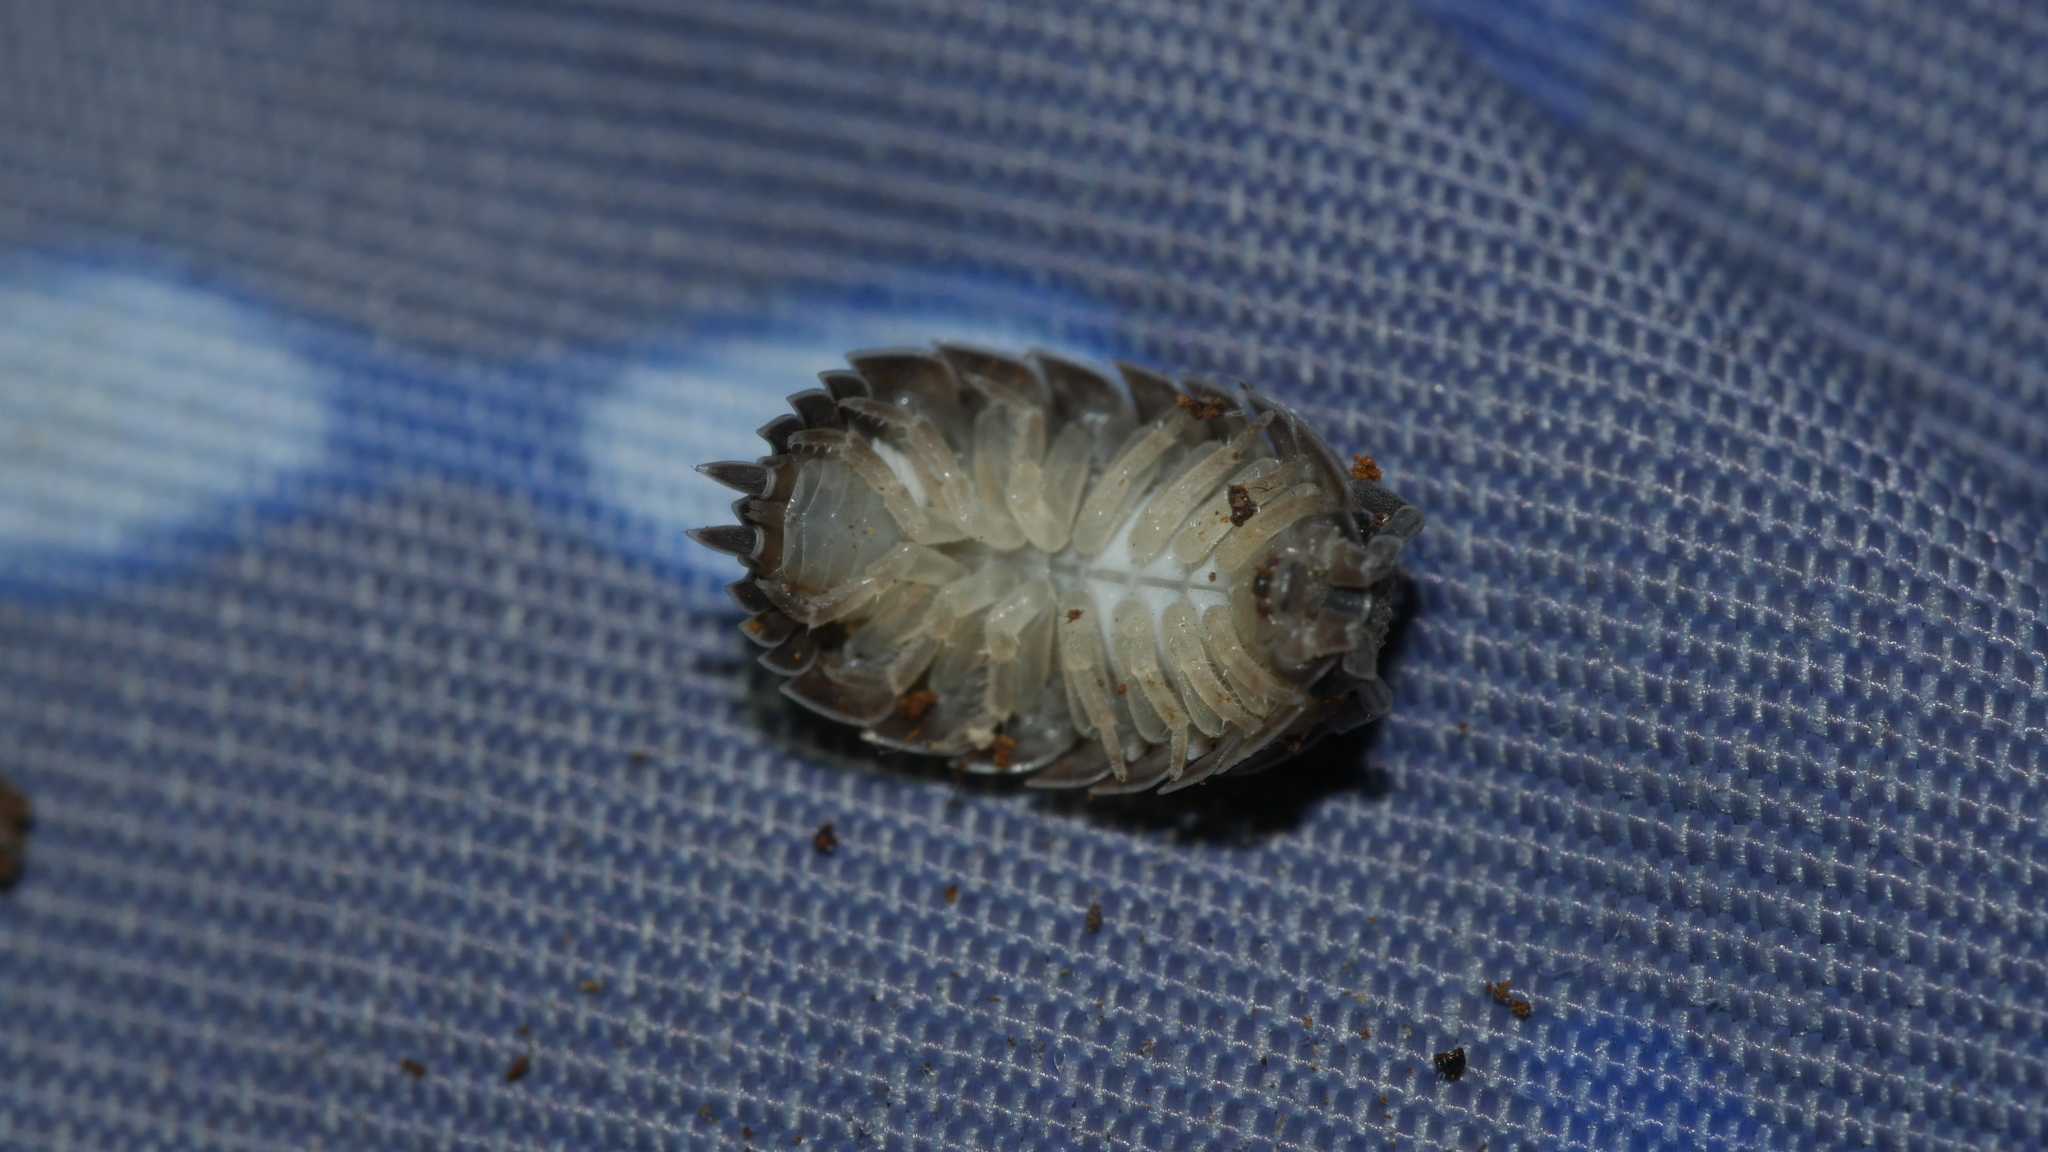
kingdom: Animalia
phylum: Arthropoda
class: Malacostraca
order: Isopoda
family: Porcellionidae
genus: Porcellio
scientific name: Porcellio scaber
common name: Common rough woodlouse
